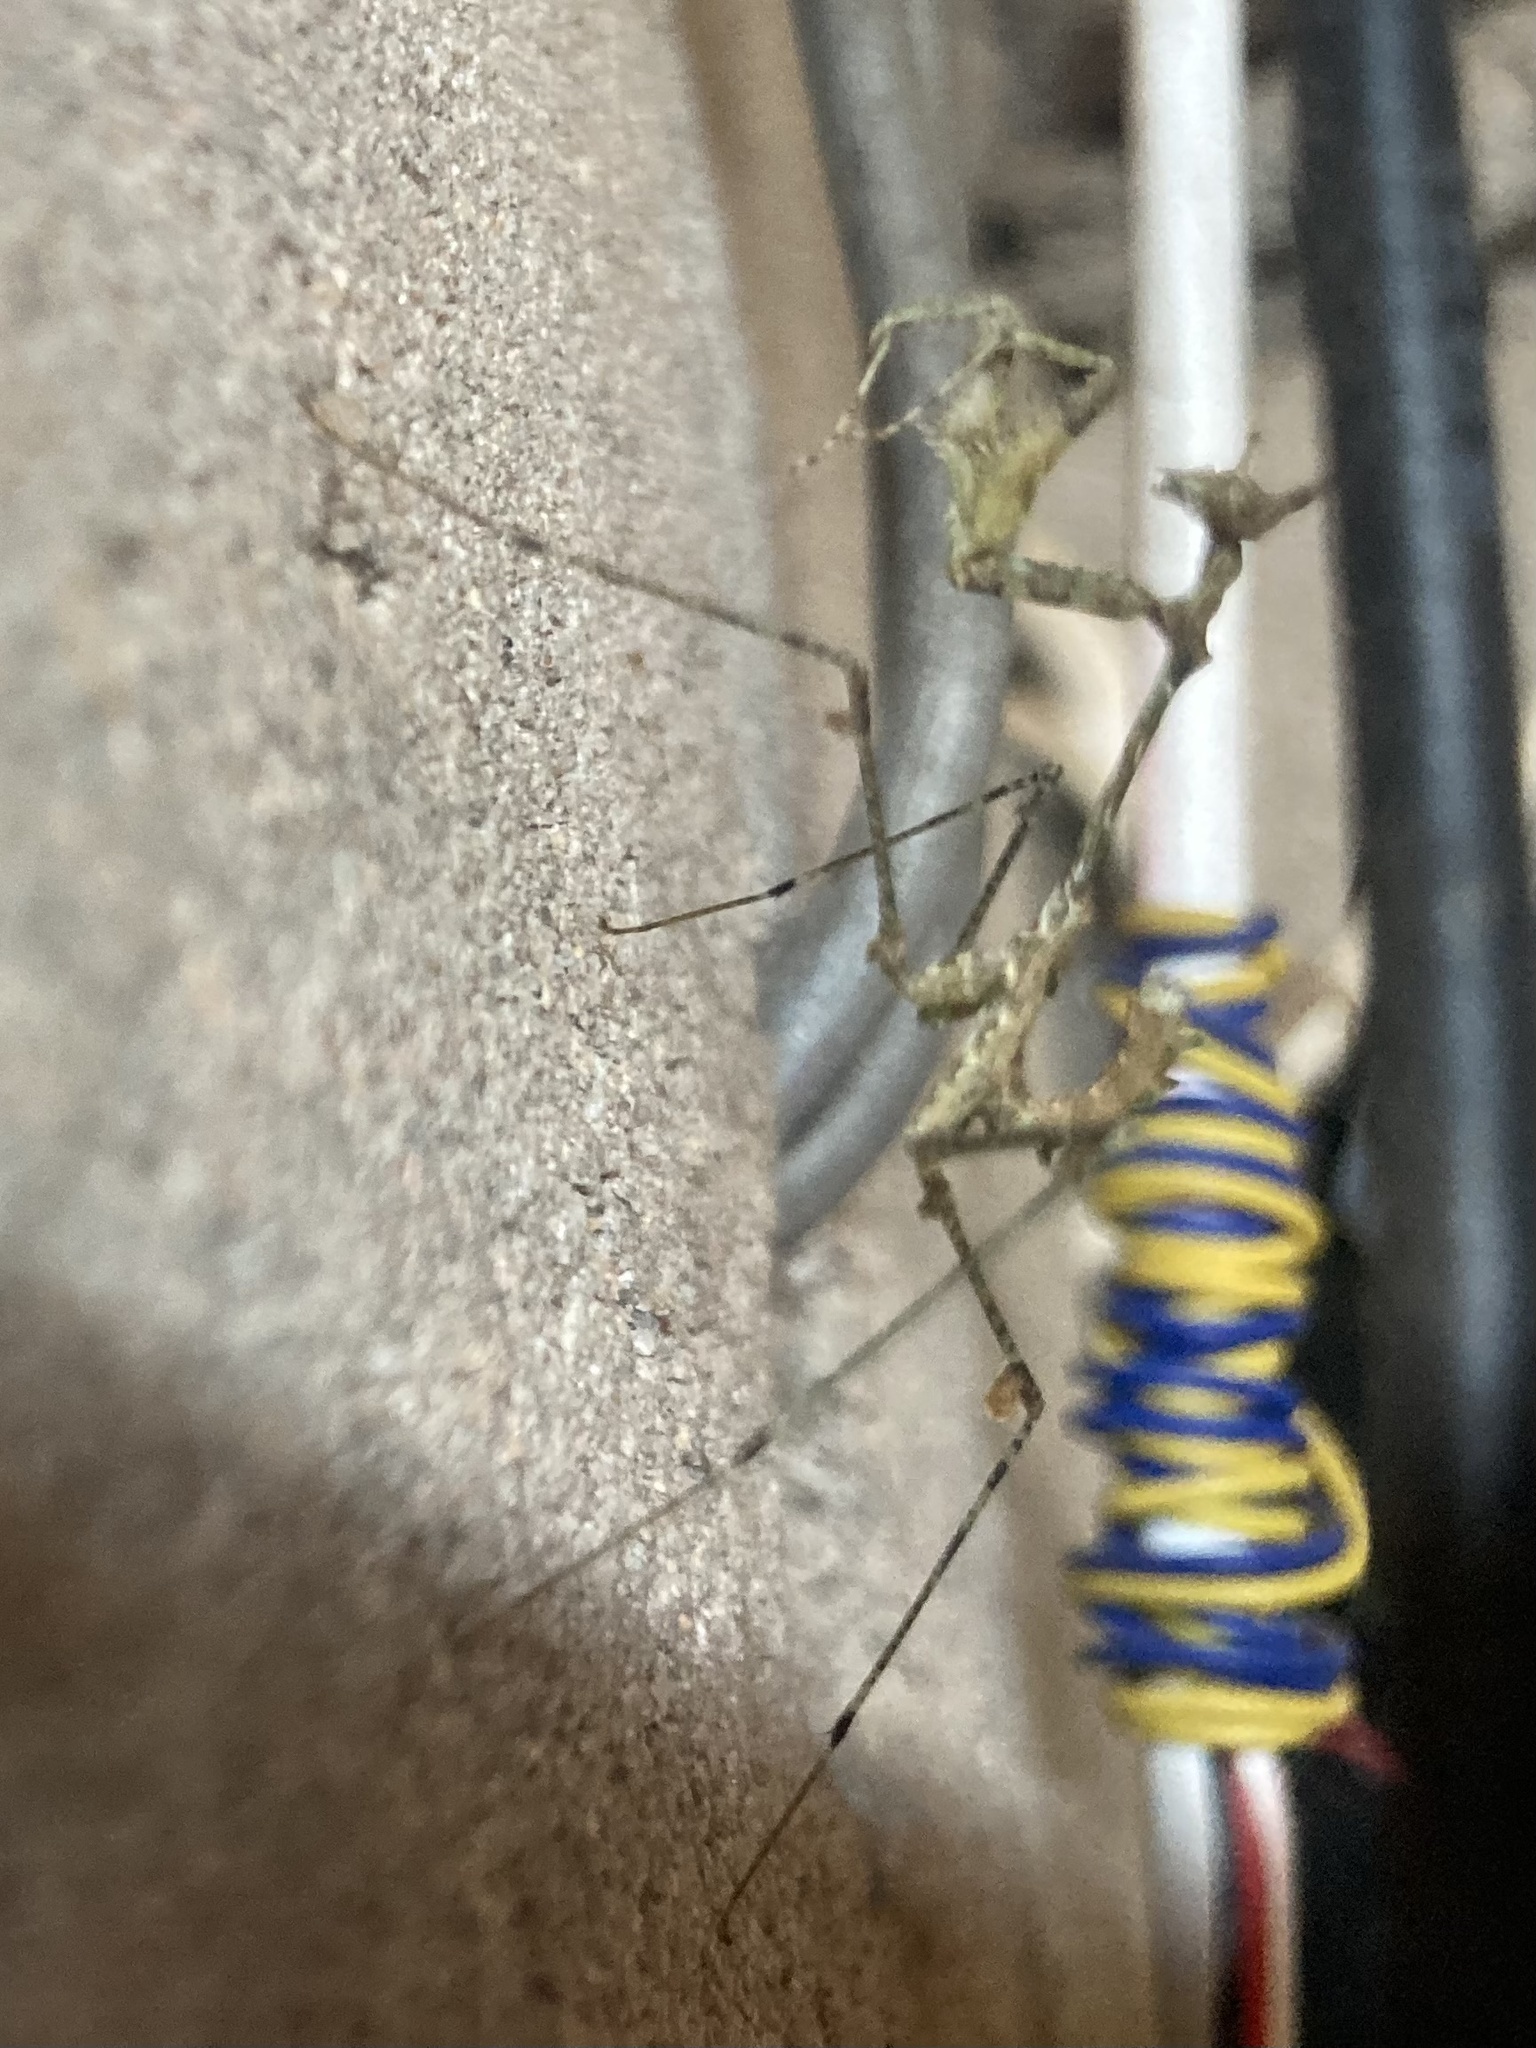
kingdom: Animalia
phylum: Arthropoda
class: Insecta
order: Mantodea
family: Hymenopodidae
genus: Sibylla
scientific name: Sibylla pretiosa
